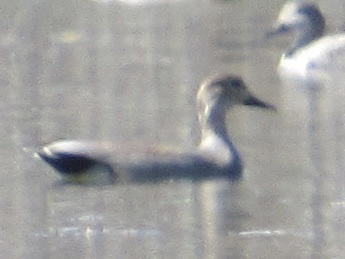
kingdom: Animalia
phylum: Chordata
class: Aves
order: Anseriformes
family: Anatidae
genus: Mareca
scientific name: Mareca strepera
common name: Gadwall
